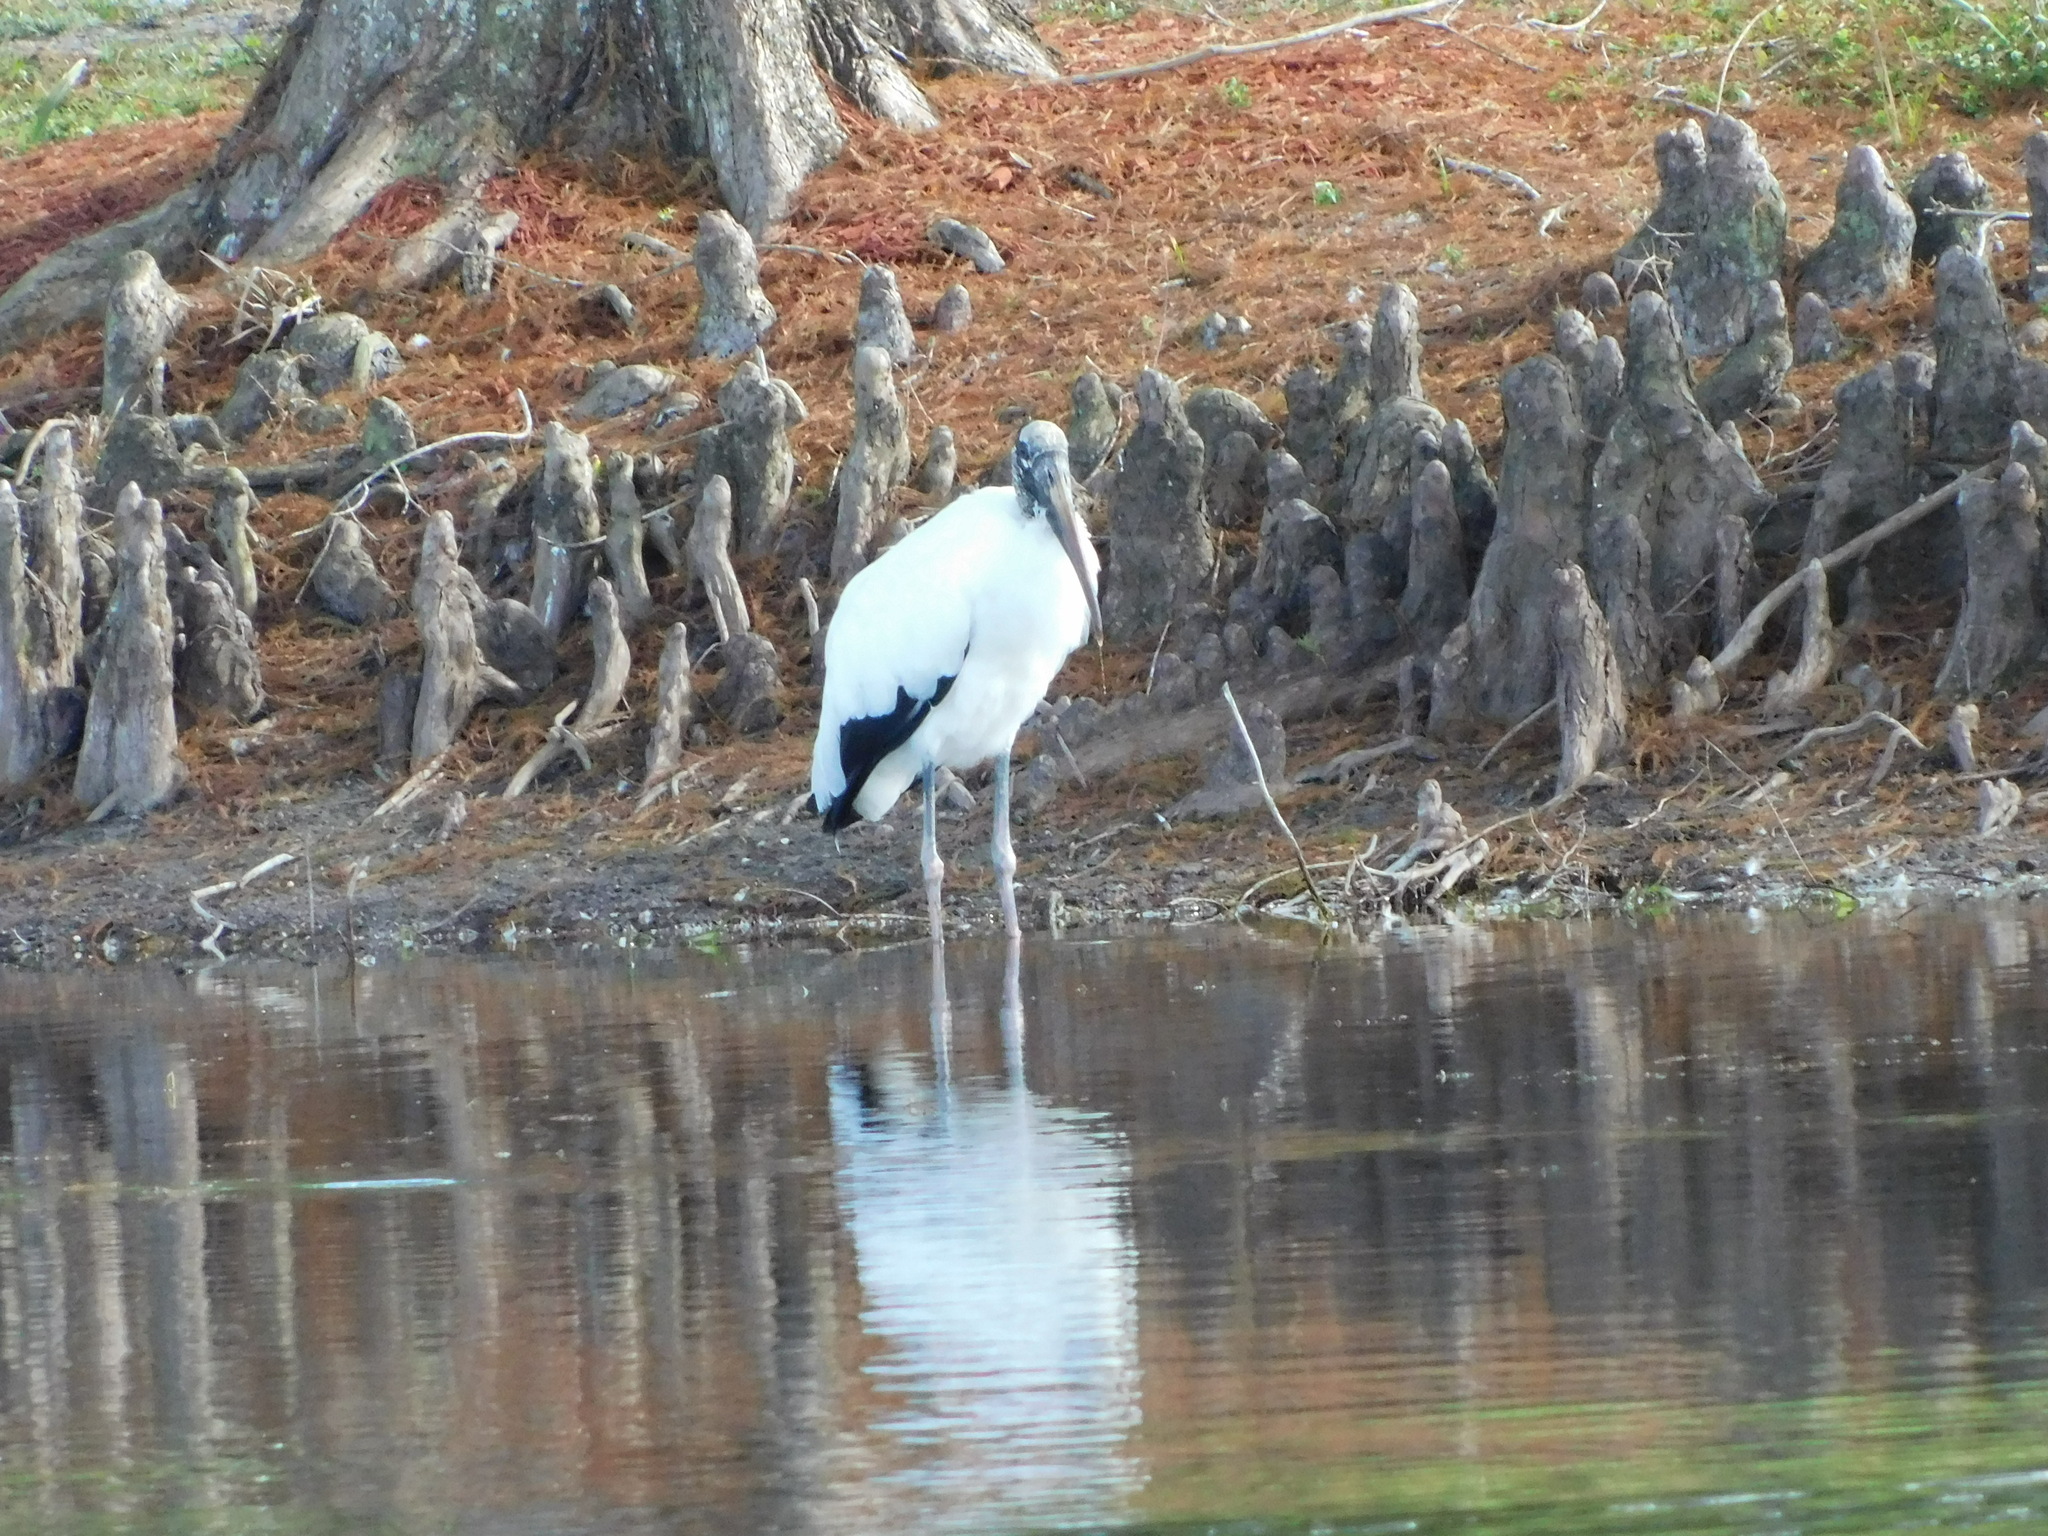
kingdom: Animalia
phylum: Chordata
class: Aves
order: Ciconiiformes
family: Ciconiidae
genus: Mycteria
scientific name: Mycteria americana
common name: Wood stork
